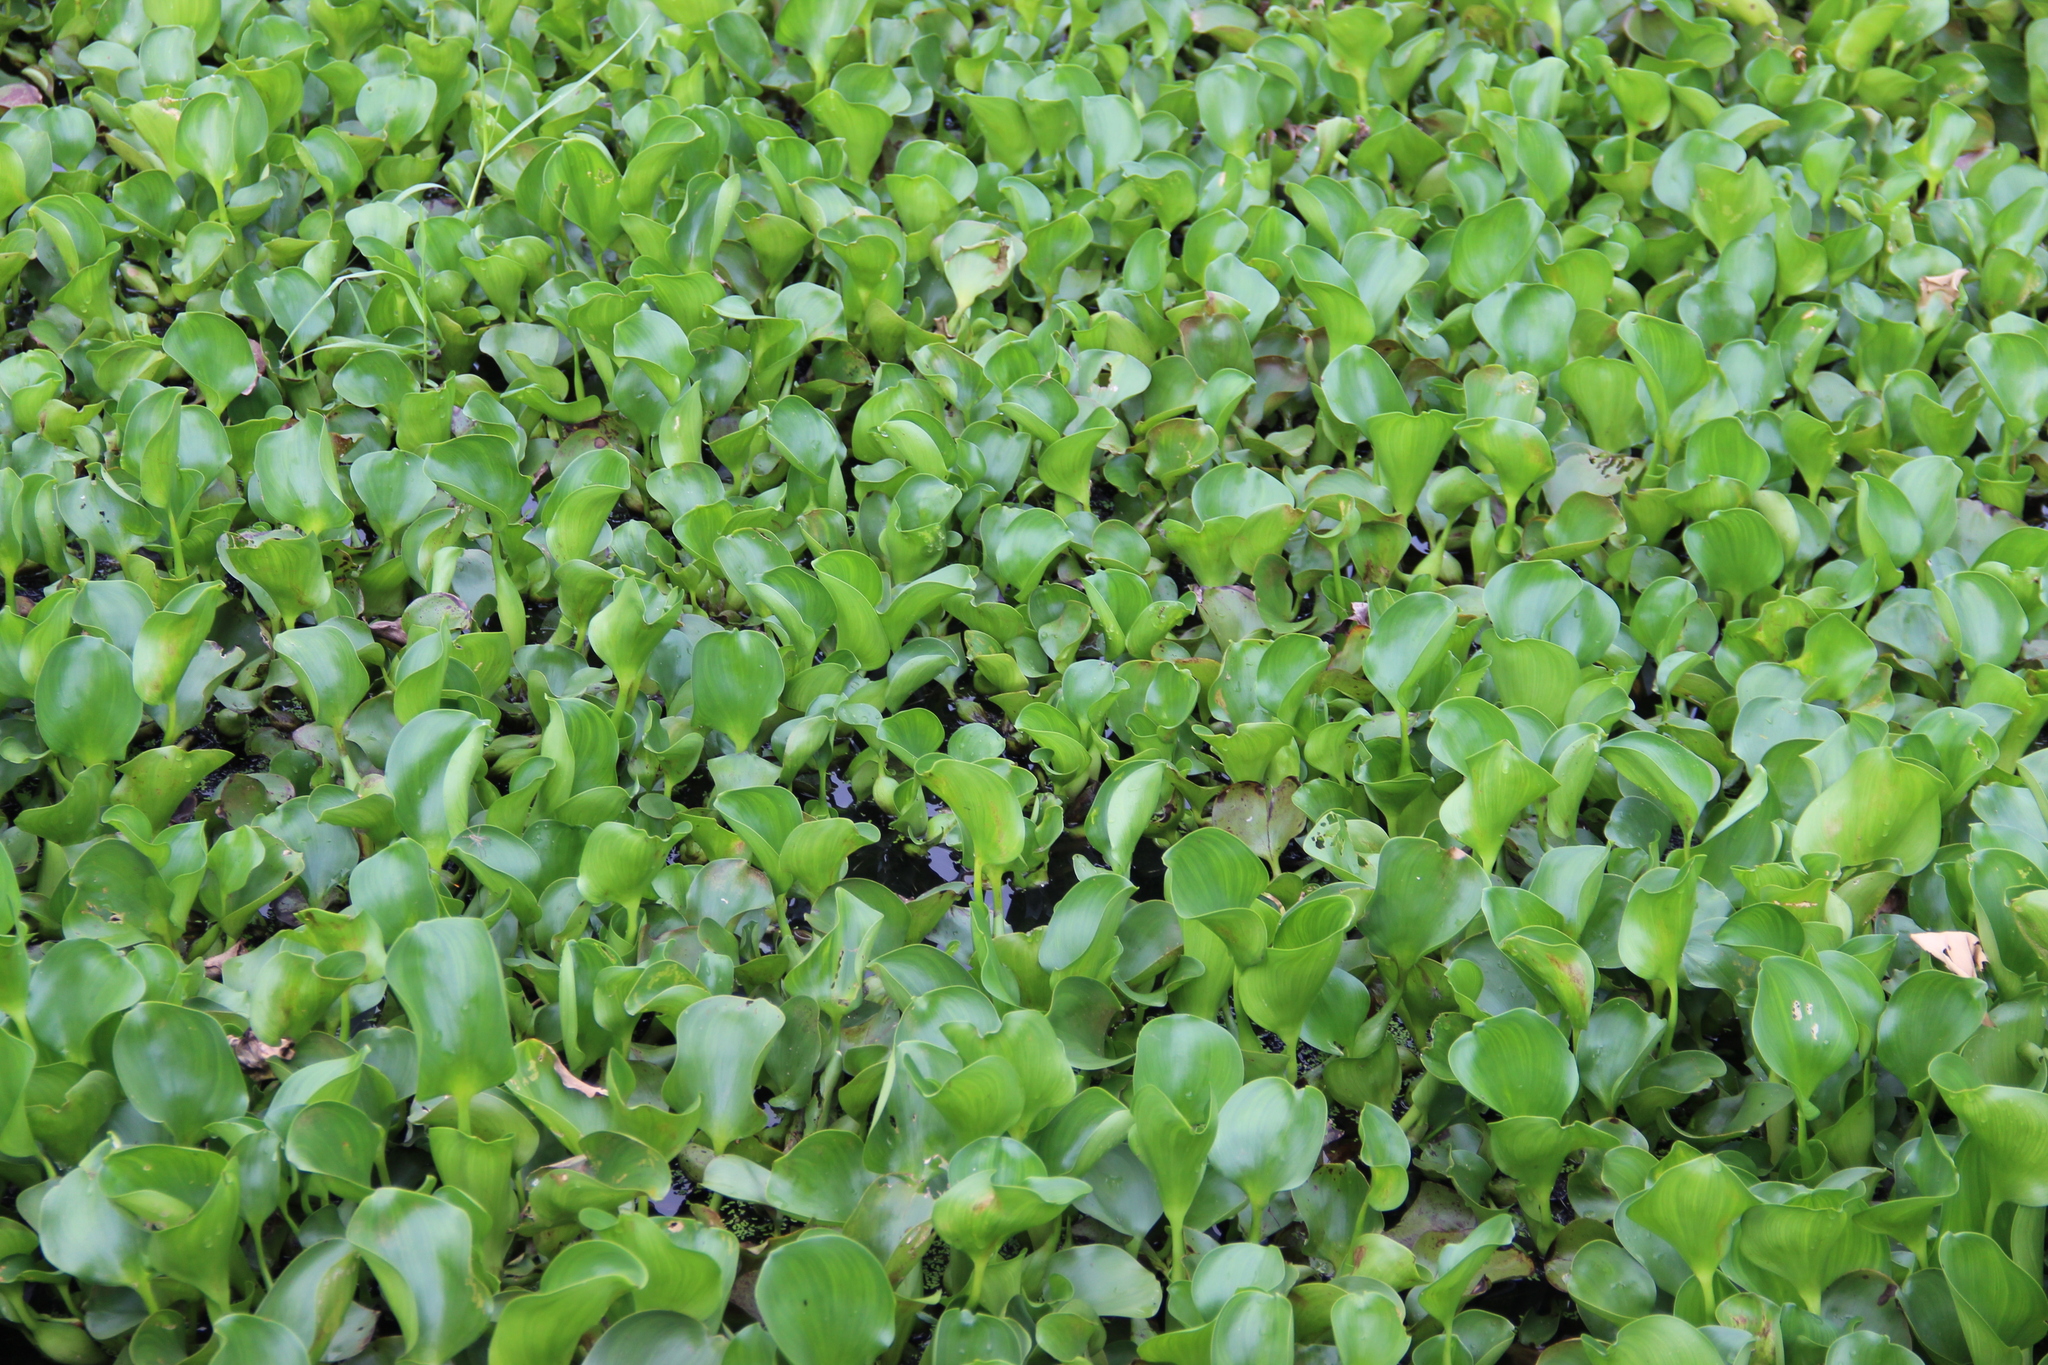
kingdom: Plantae
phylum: Tracheophyta
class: Liliopsida
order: Commelinales
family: Pontederiaceae
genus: Pontederia
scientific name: Pontederia crassipes
